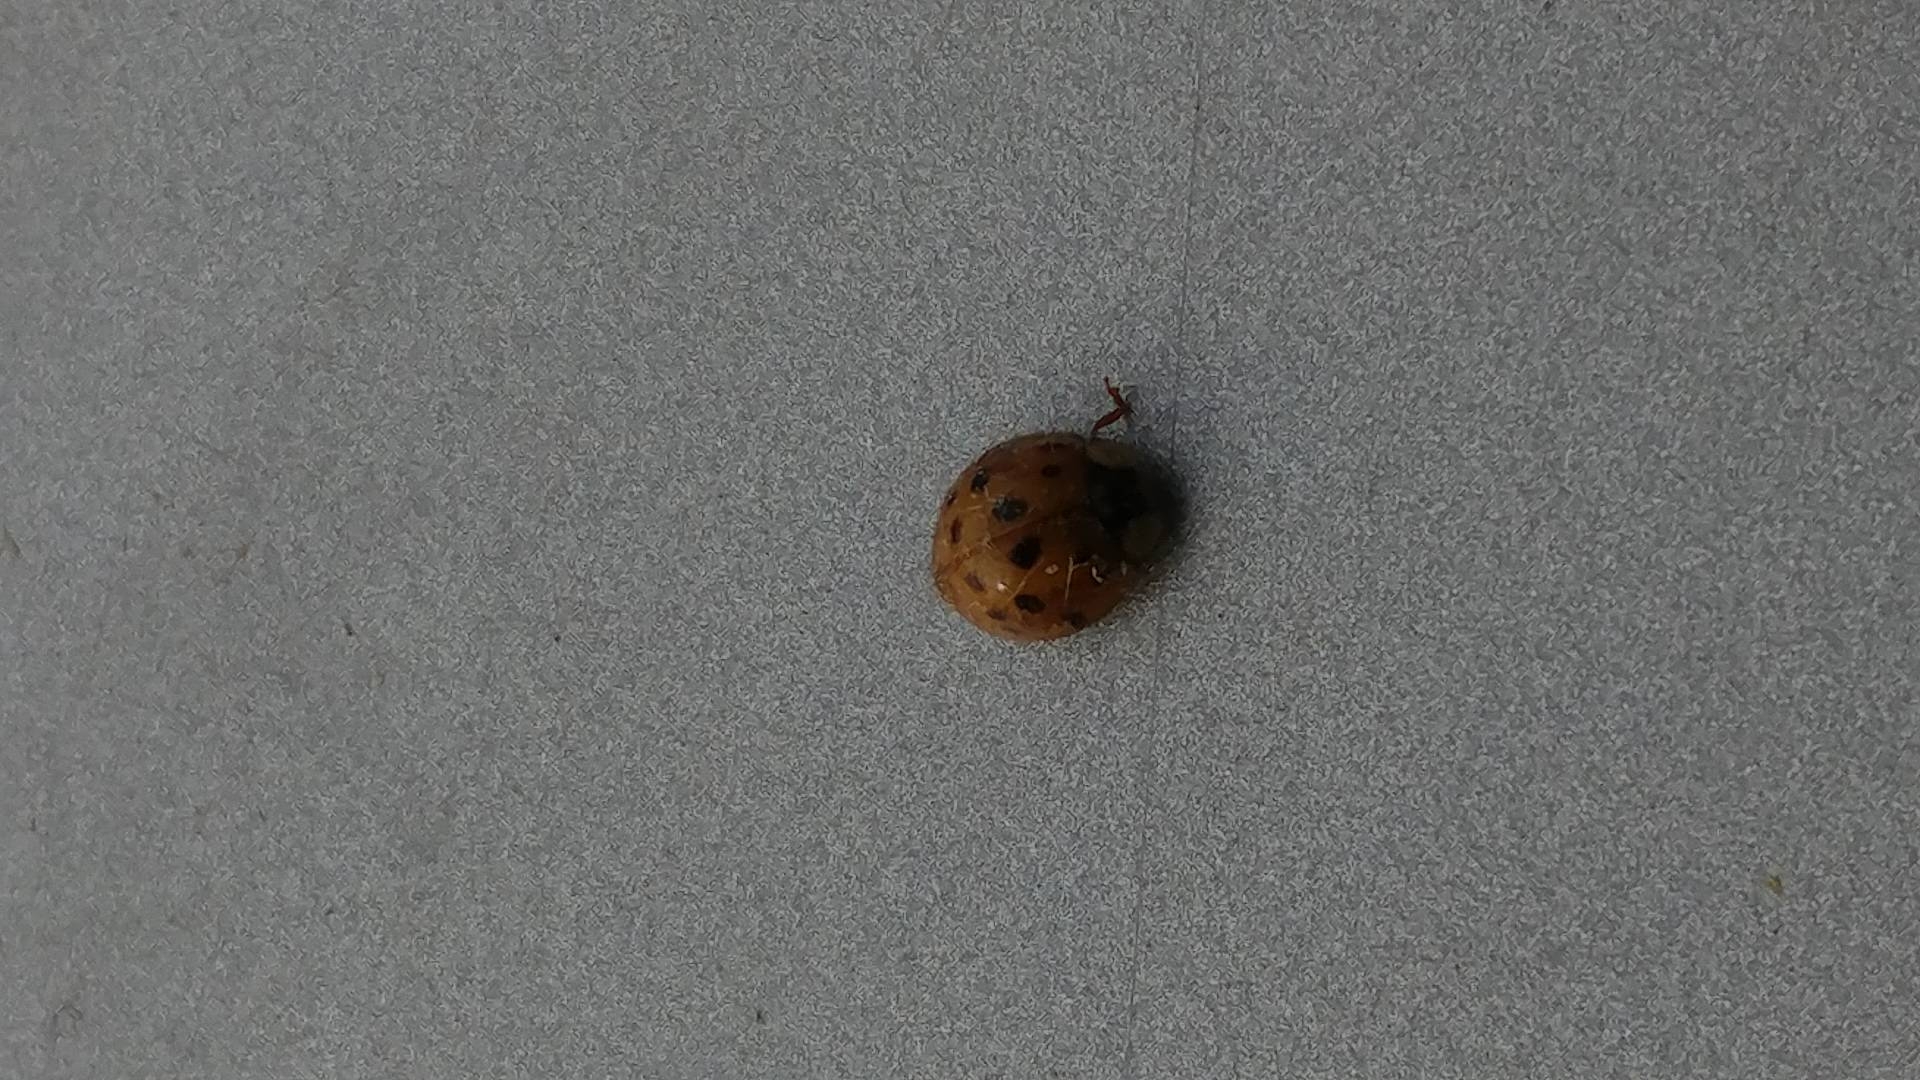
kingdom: Animalia
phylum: Arthropoda
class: Insecta
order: Coleoptera
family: Coccinellidae
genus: Harmonia
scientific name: Harmonia axyridis
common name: Harlequin ladybird
